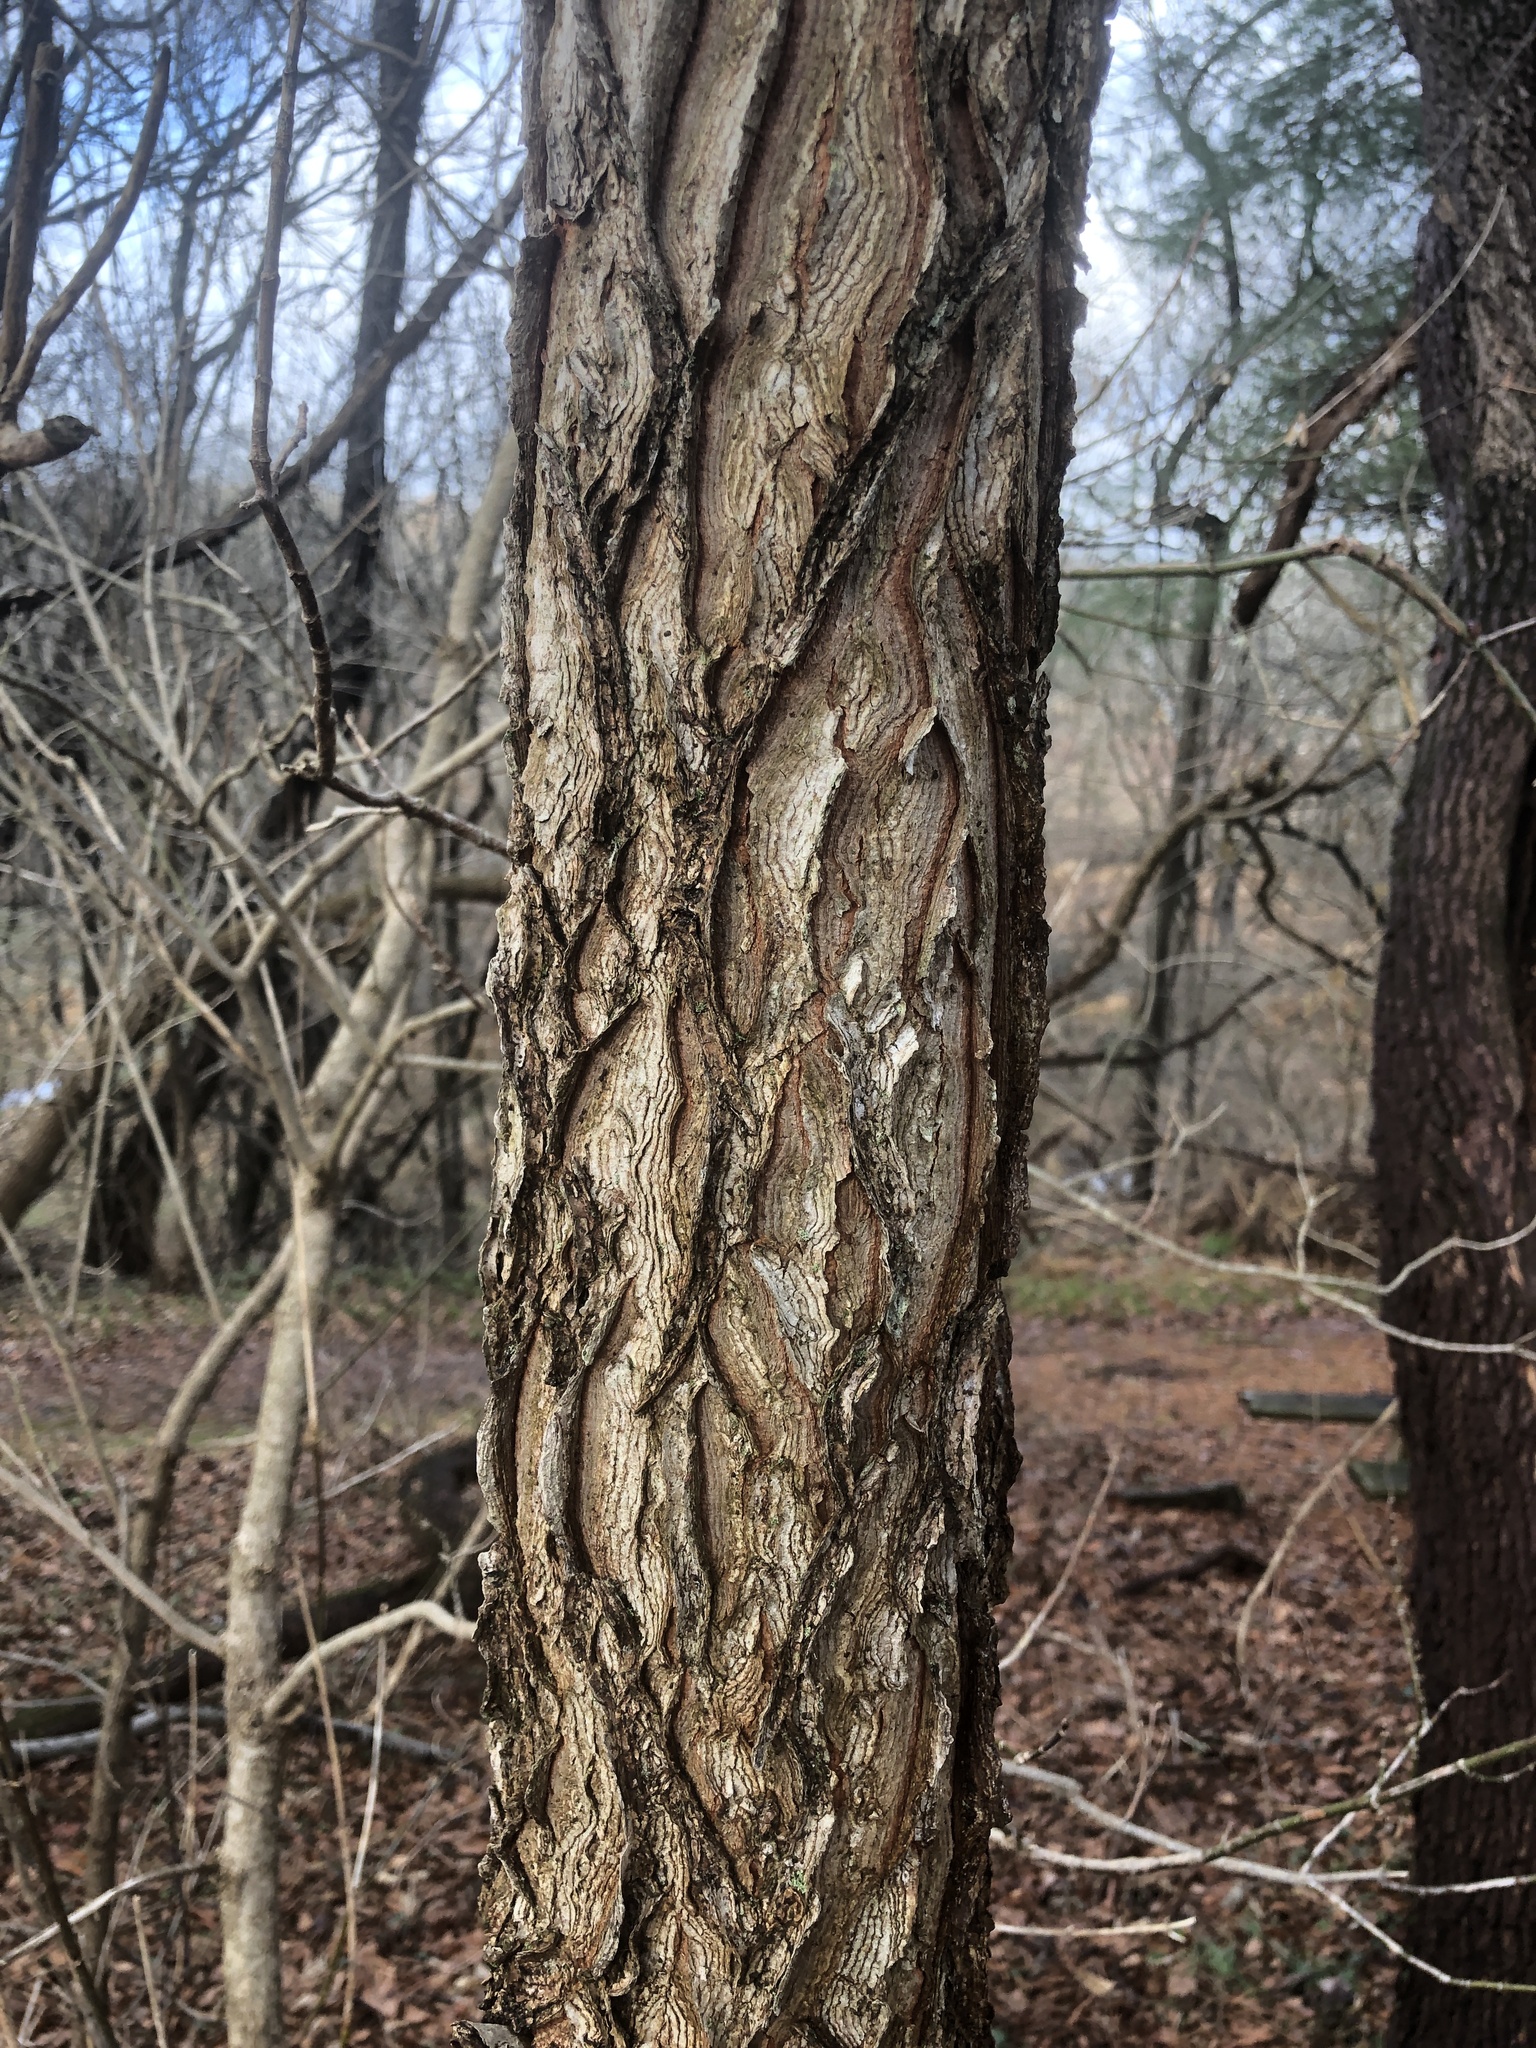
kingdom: Plantae
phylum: Tracheophyta
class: Magnoliopsida
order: Fabales
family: Fabaceae
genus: Gymnocladus
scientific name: Gymnocladus dioicus
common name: Kentucky coffee-tree
